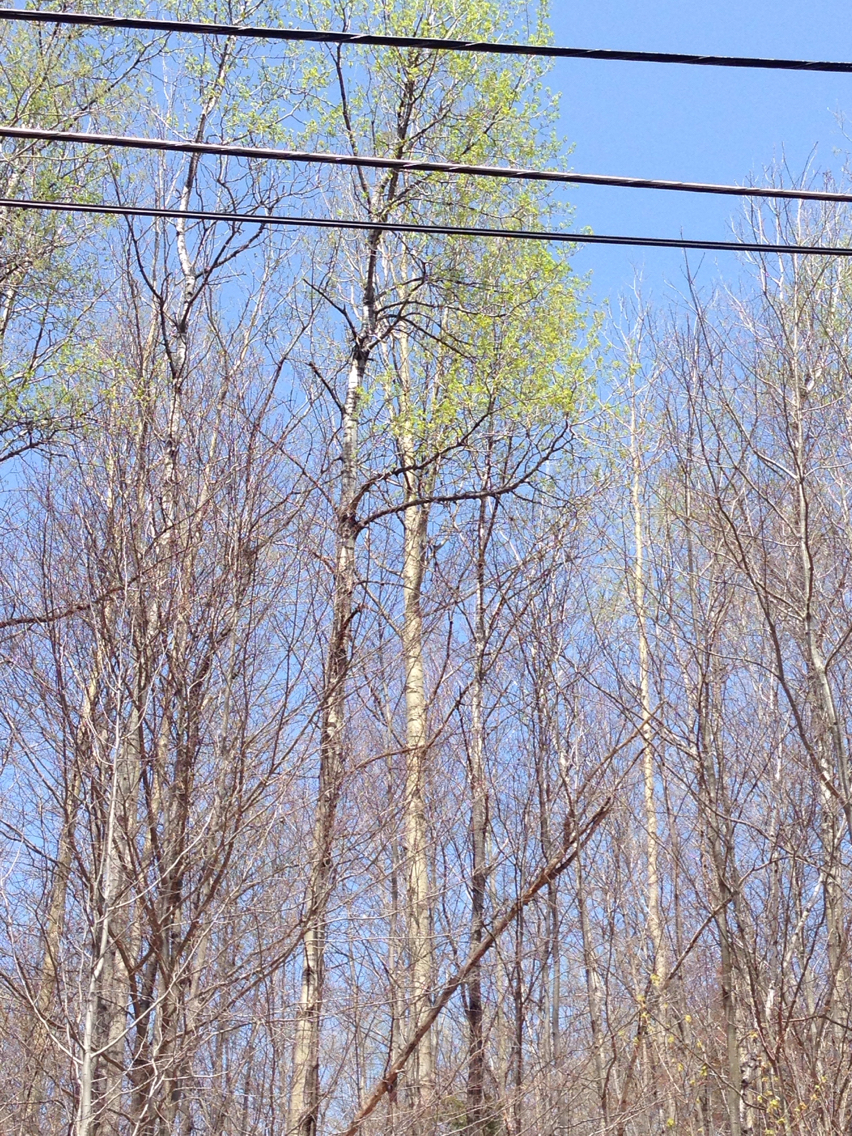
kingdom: Plantae
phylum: Tracheophyta
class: Magnoliopsida
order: Malpighiales
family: Salicaceae
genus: Populus
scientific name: Populus tremuloides
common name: Quaking aspen
